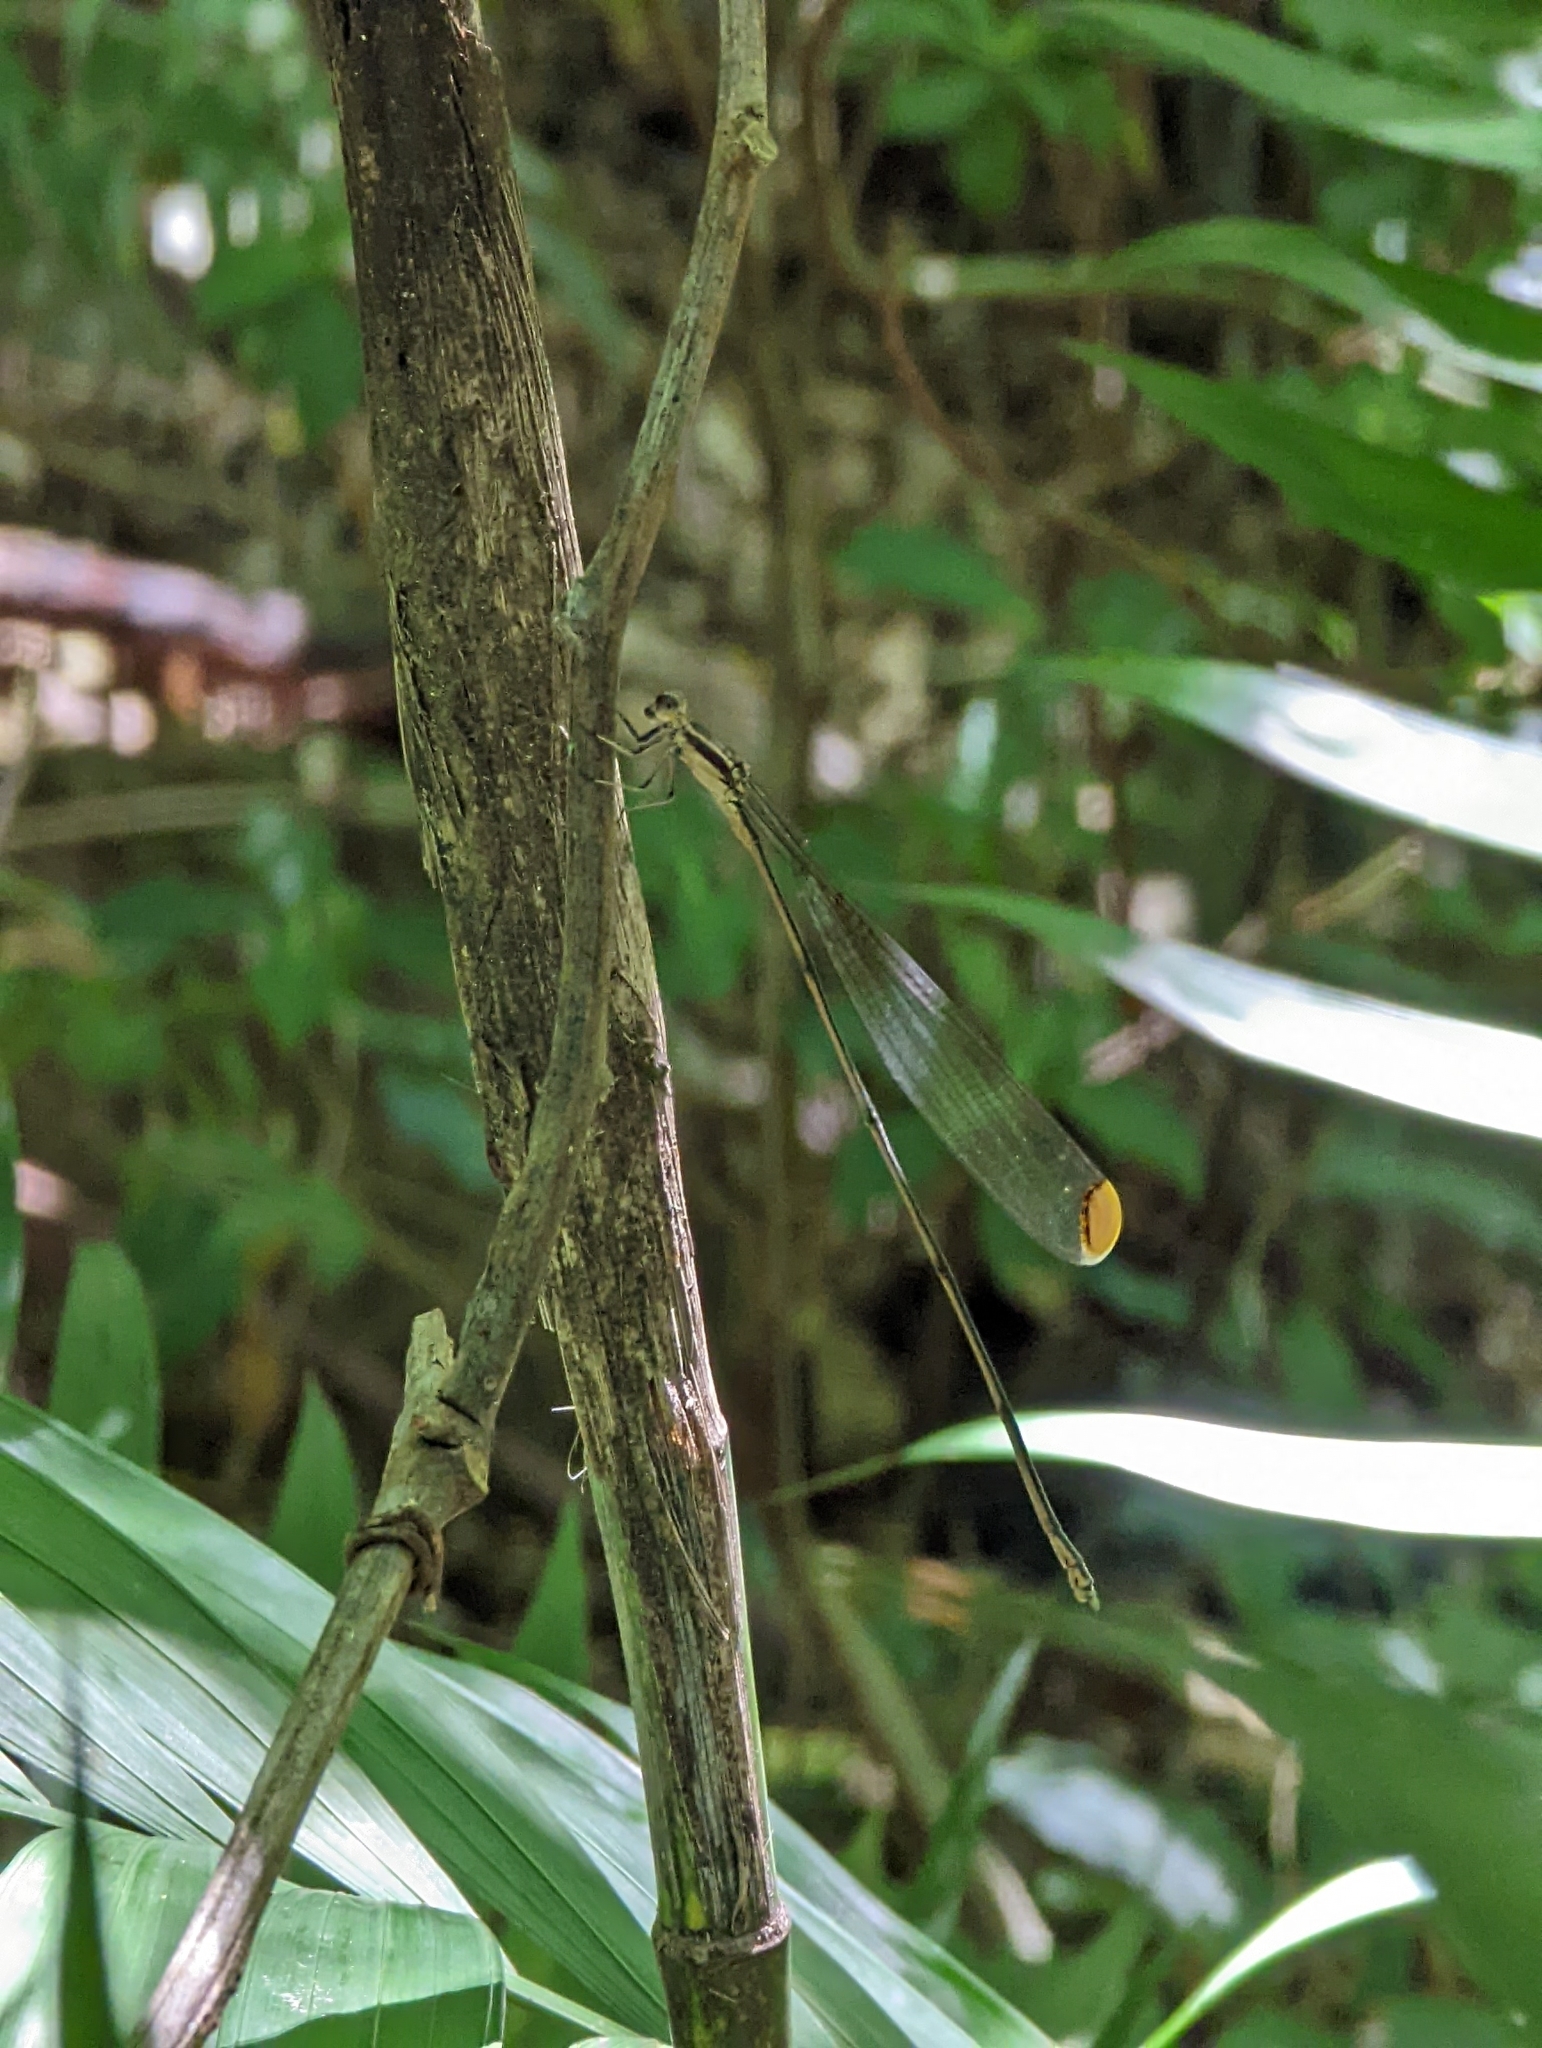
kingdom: Animalia
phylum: Arthropoda
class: Insecta
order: Odonata
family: Coenagrionidae
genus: Mecistogaster
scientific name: Mecistogaster ornata
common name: Ornate helicopter
